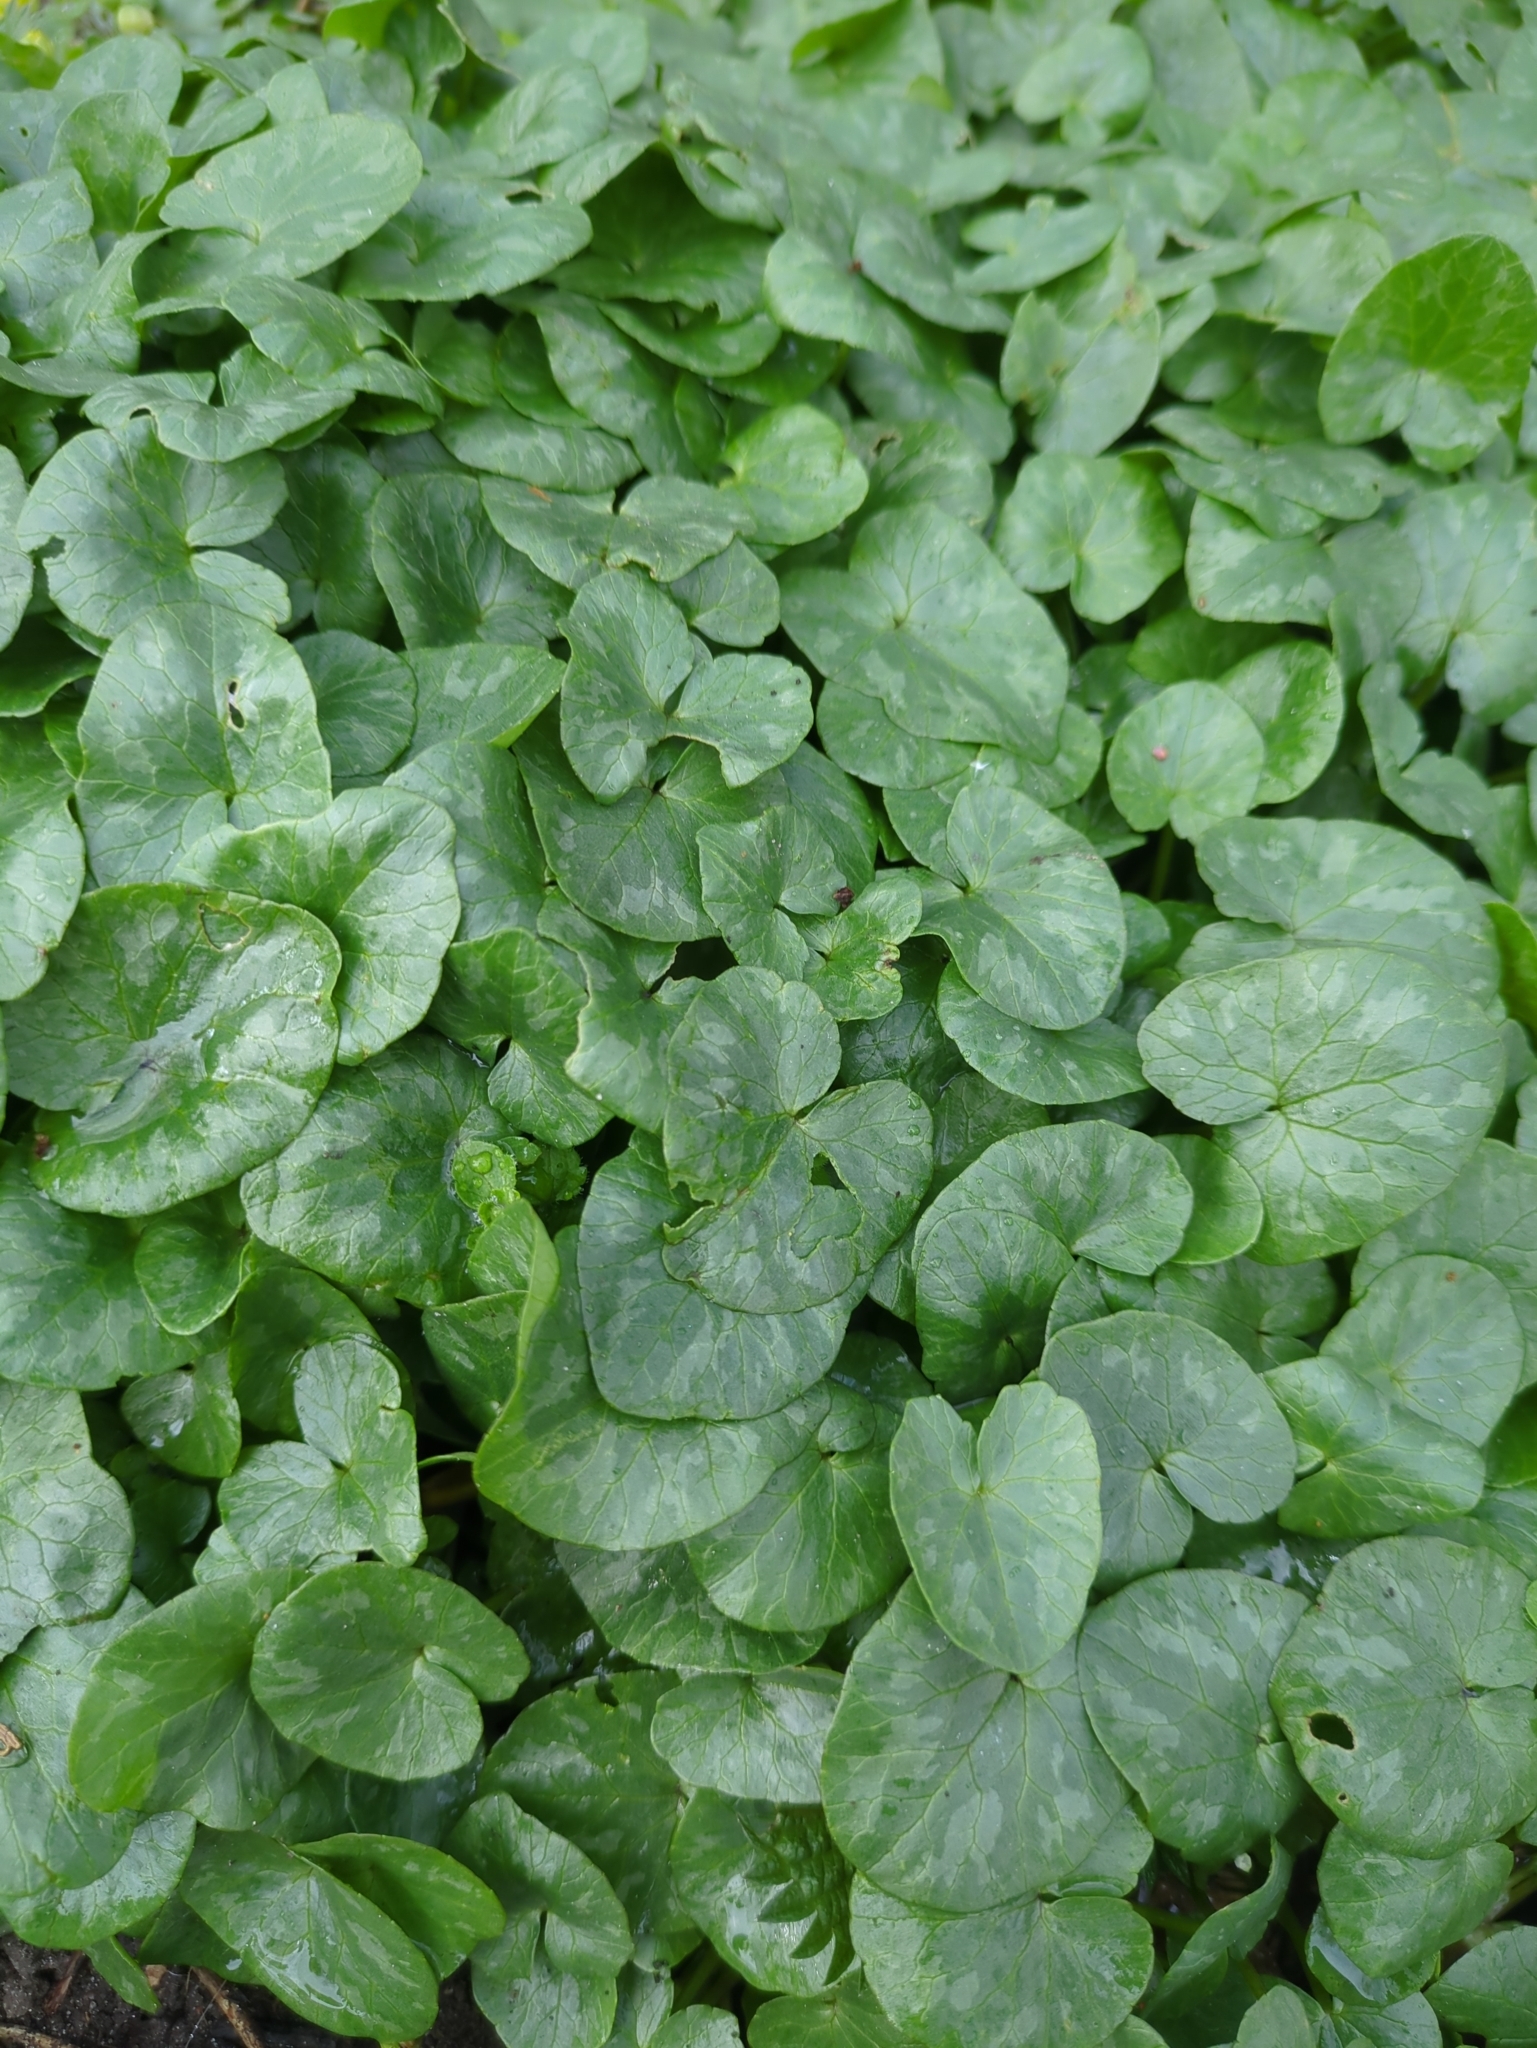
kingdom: Plantae
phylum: Tracheophyta
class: Magnoliopsida
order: Ranunculales
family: Ranunculaceae
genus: Ficaria
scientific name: Ficaria verna
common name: Lesser celandine
